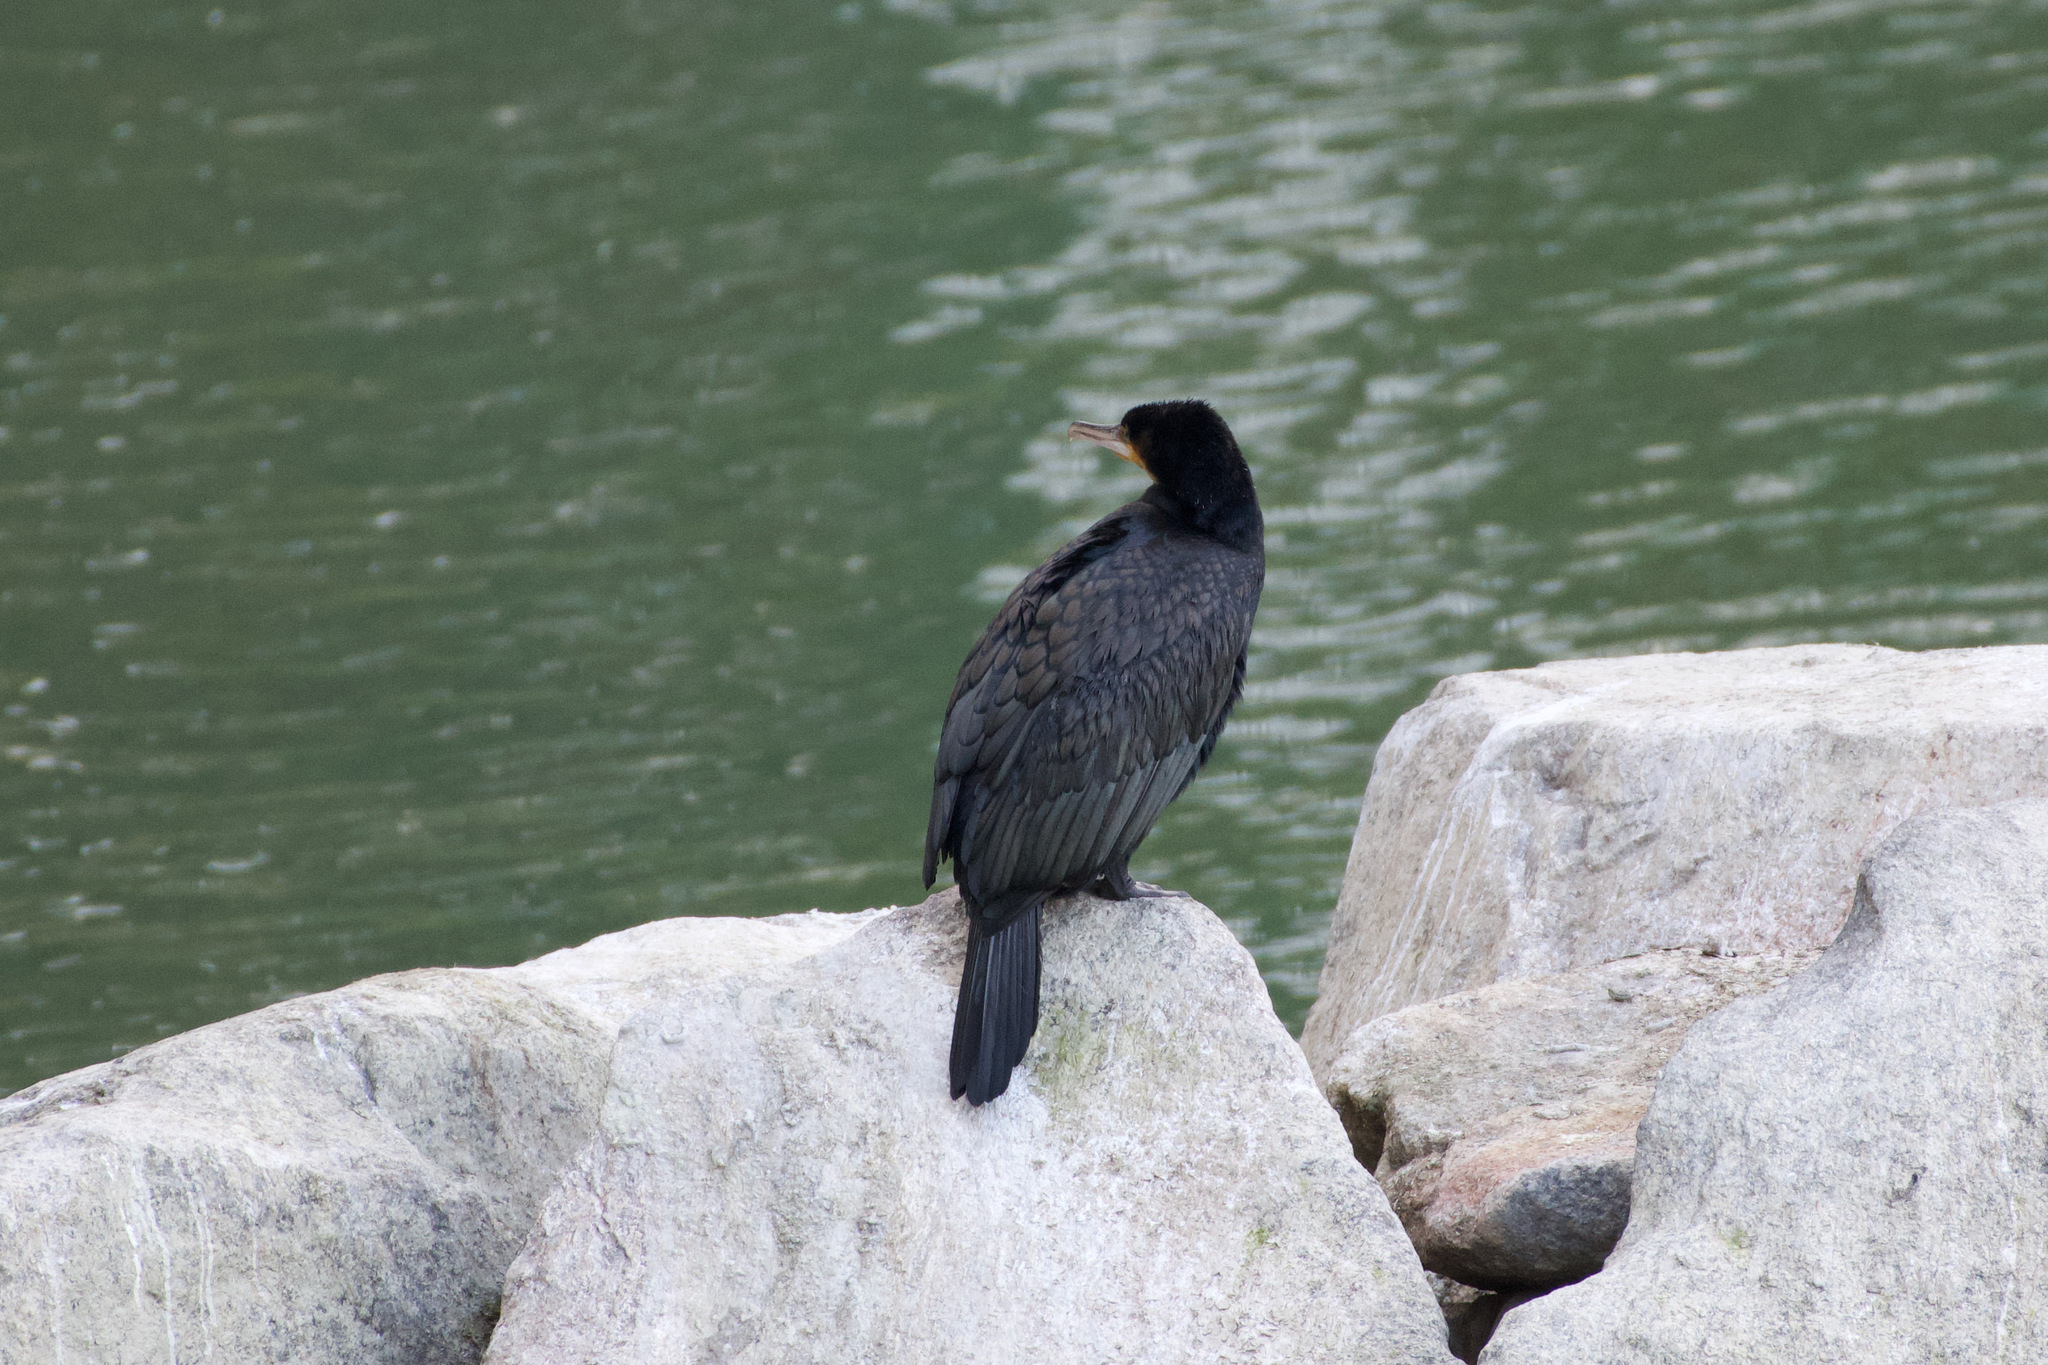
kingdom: Animalia
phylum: Chordata
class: Aves
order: Suliformes
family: Phalacrocoracidae
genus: Phalacrocorax
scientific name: Phalacrocorax carbo
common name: Great cormorant
